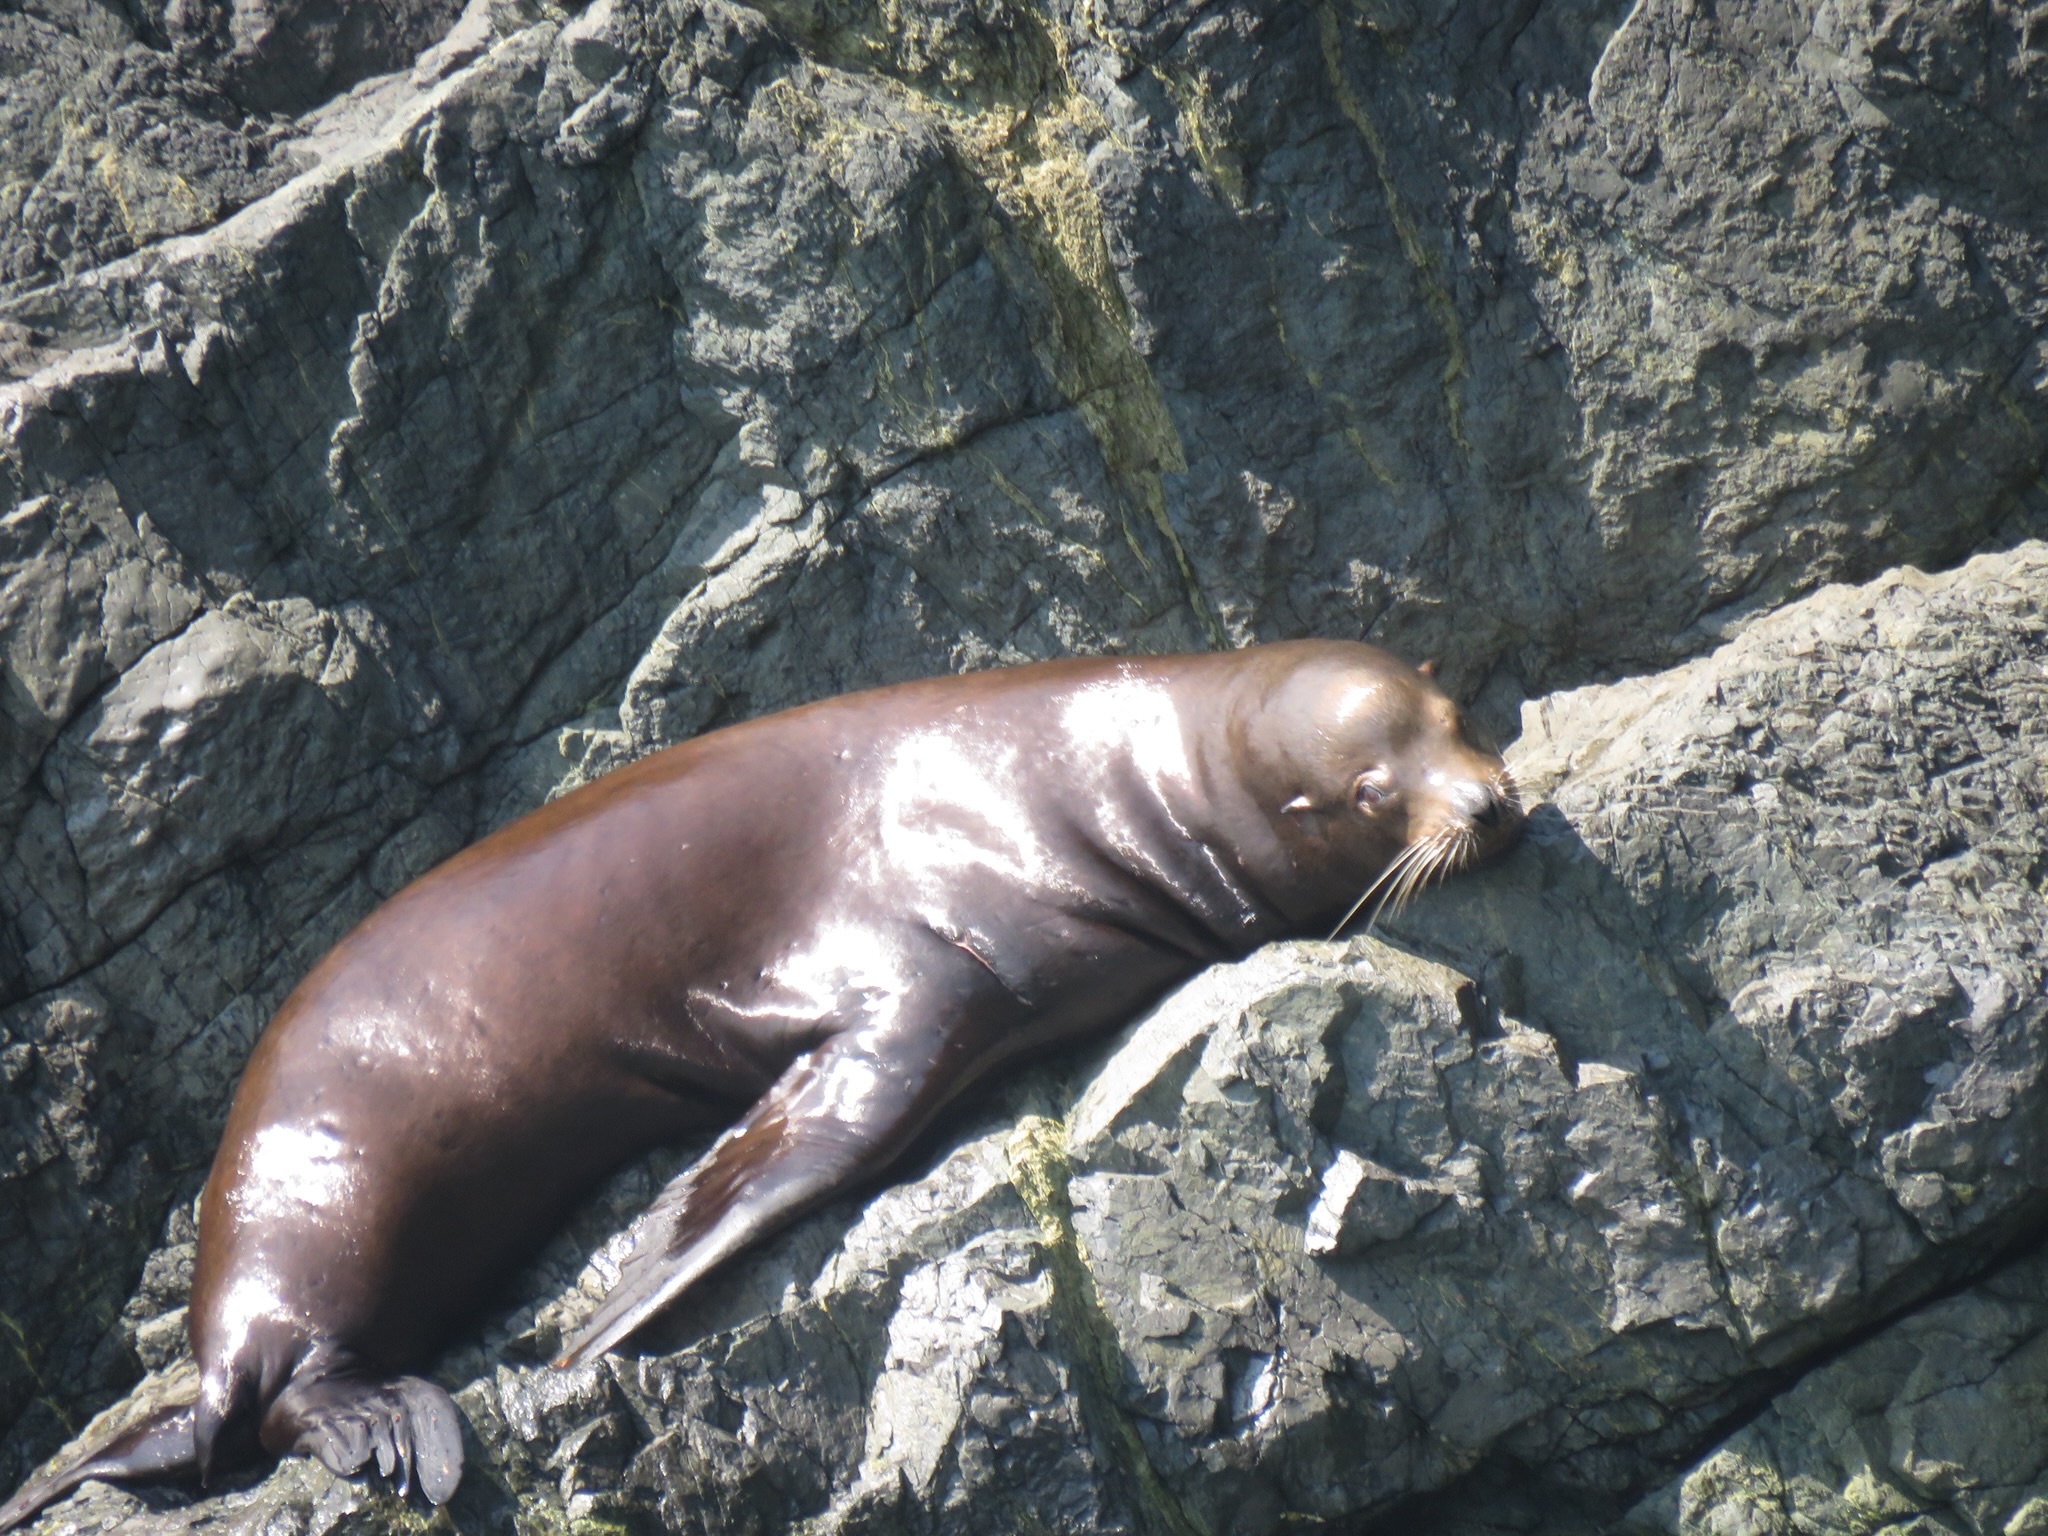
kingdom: Animalia
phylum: Chordata
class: Mammalia
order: Carnivora
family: Otariidae
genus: Zalophus
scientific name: Zalophus californianus
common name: California sea lion
